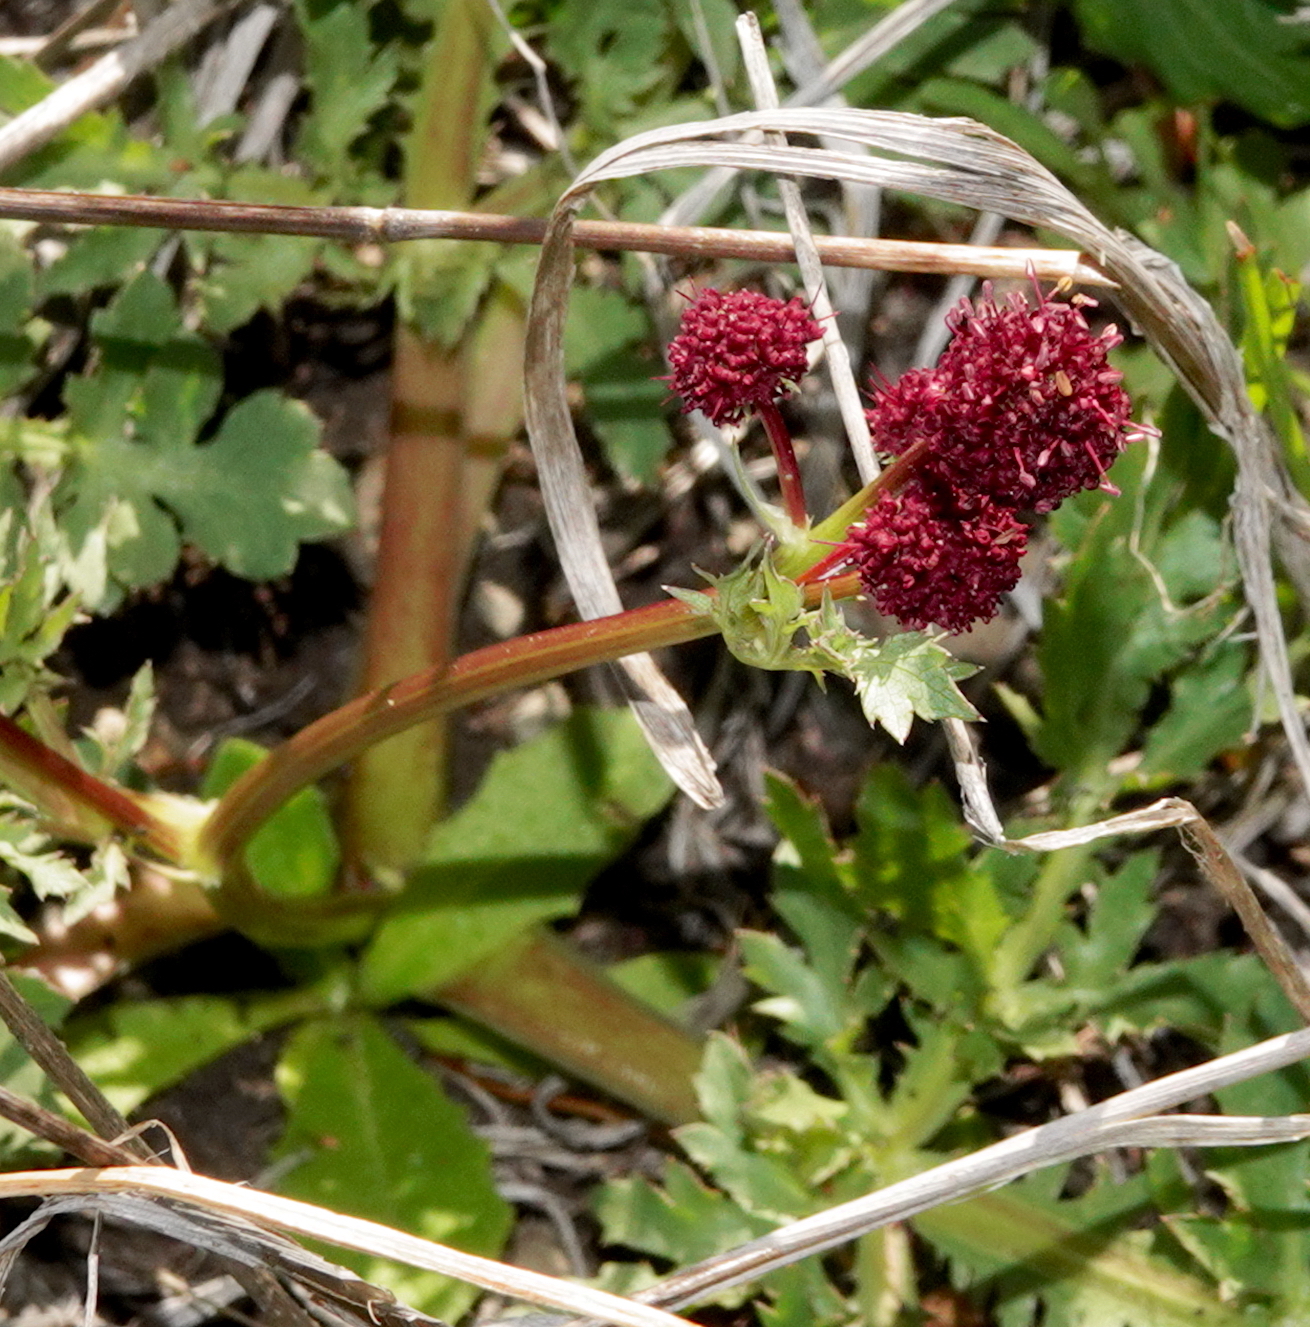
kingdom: Plantae
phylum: Tracheophyta
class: Magnoliopsida
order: Apiales
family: Apiaceae
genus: Sanicula
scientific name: Sanicula bipinnatifida
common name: Shoe-buttons
